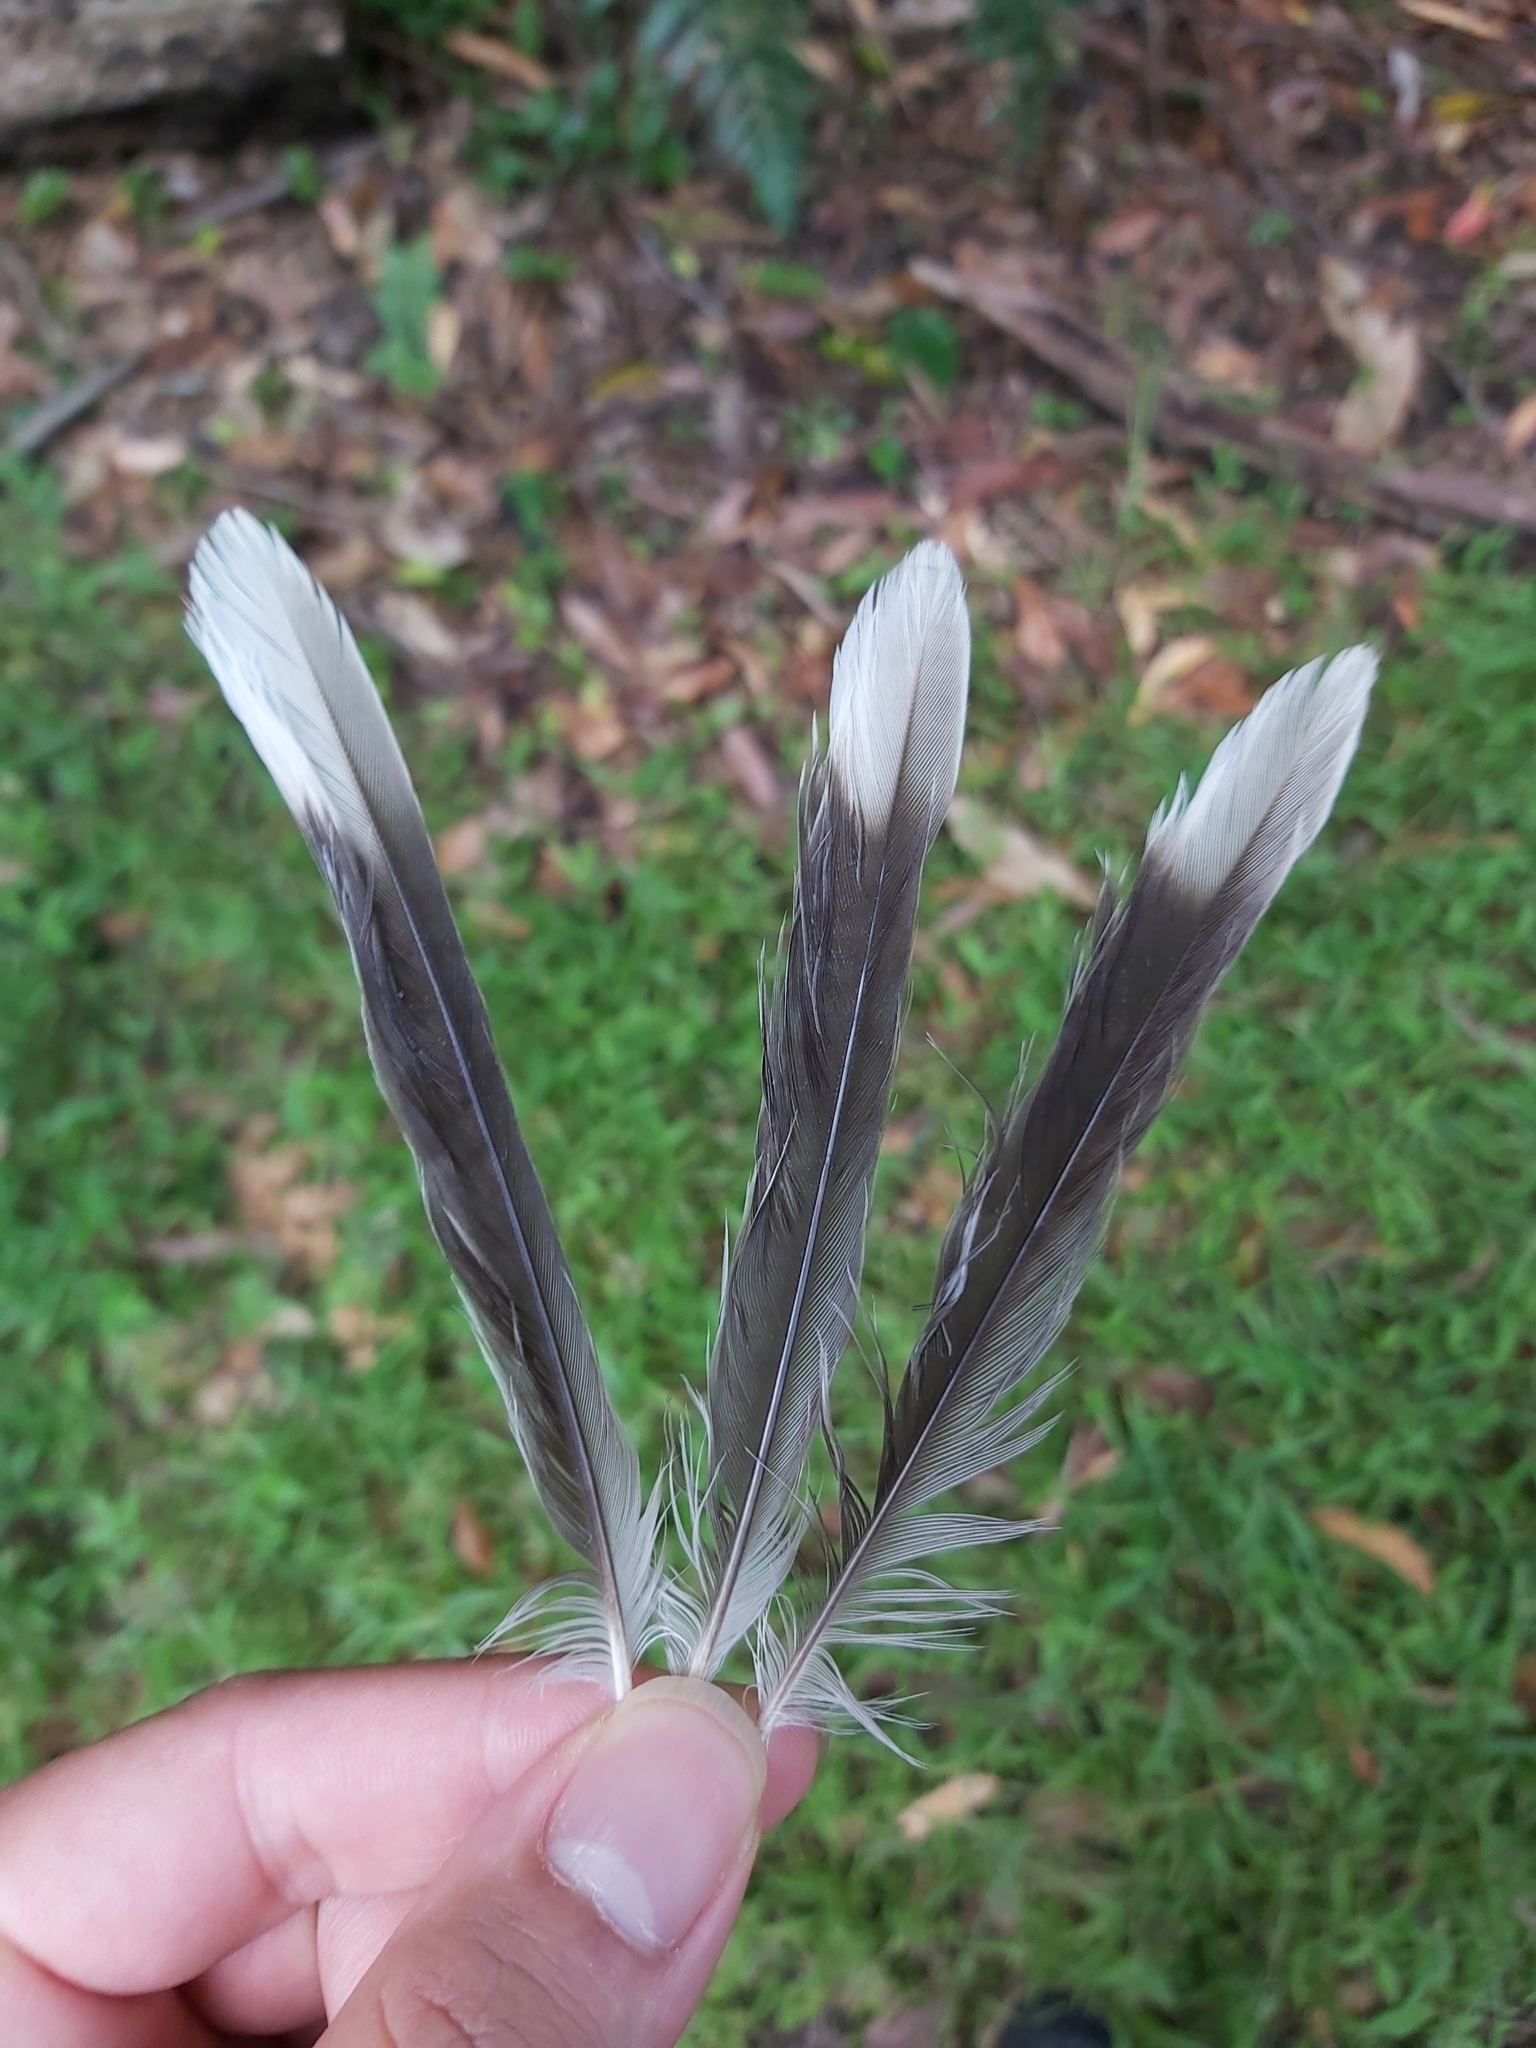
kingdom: Animalia
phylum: Chordata
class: Aves
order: Passeriformes
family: Meliphagidae
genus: Manorina
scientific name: Manorina melanocephala
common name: Noisy miner
